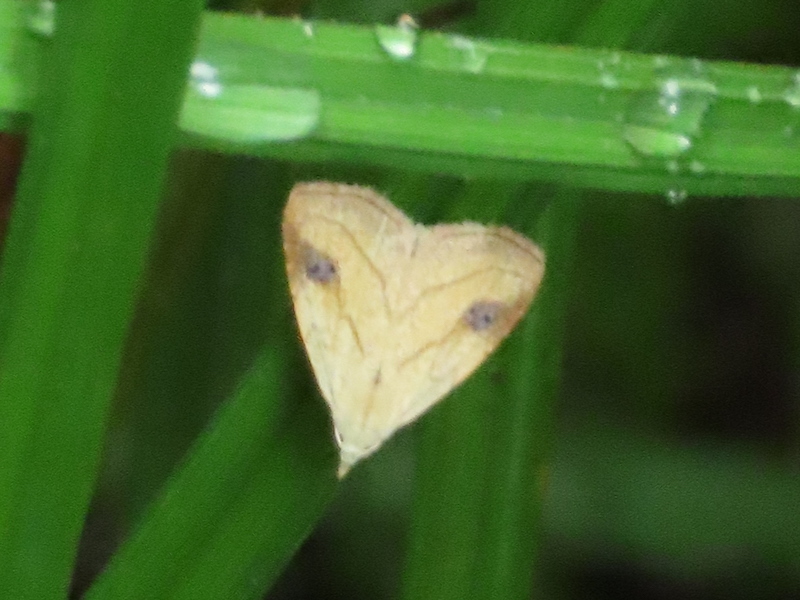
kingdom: Animalia
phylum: Arthropoda
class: Insecta
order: Lepidoptera
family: Erebidae
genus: Rivula
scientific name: Rivula propinqualis
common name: Spotted grass moth
